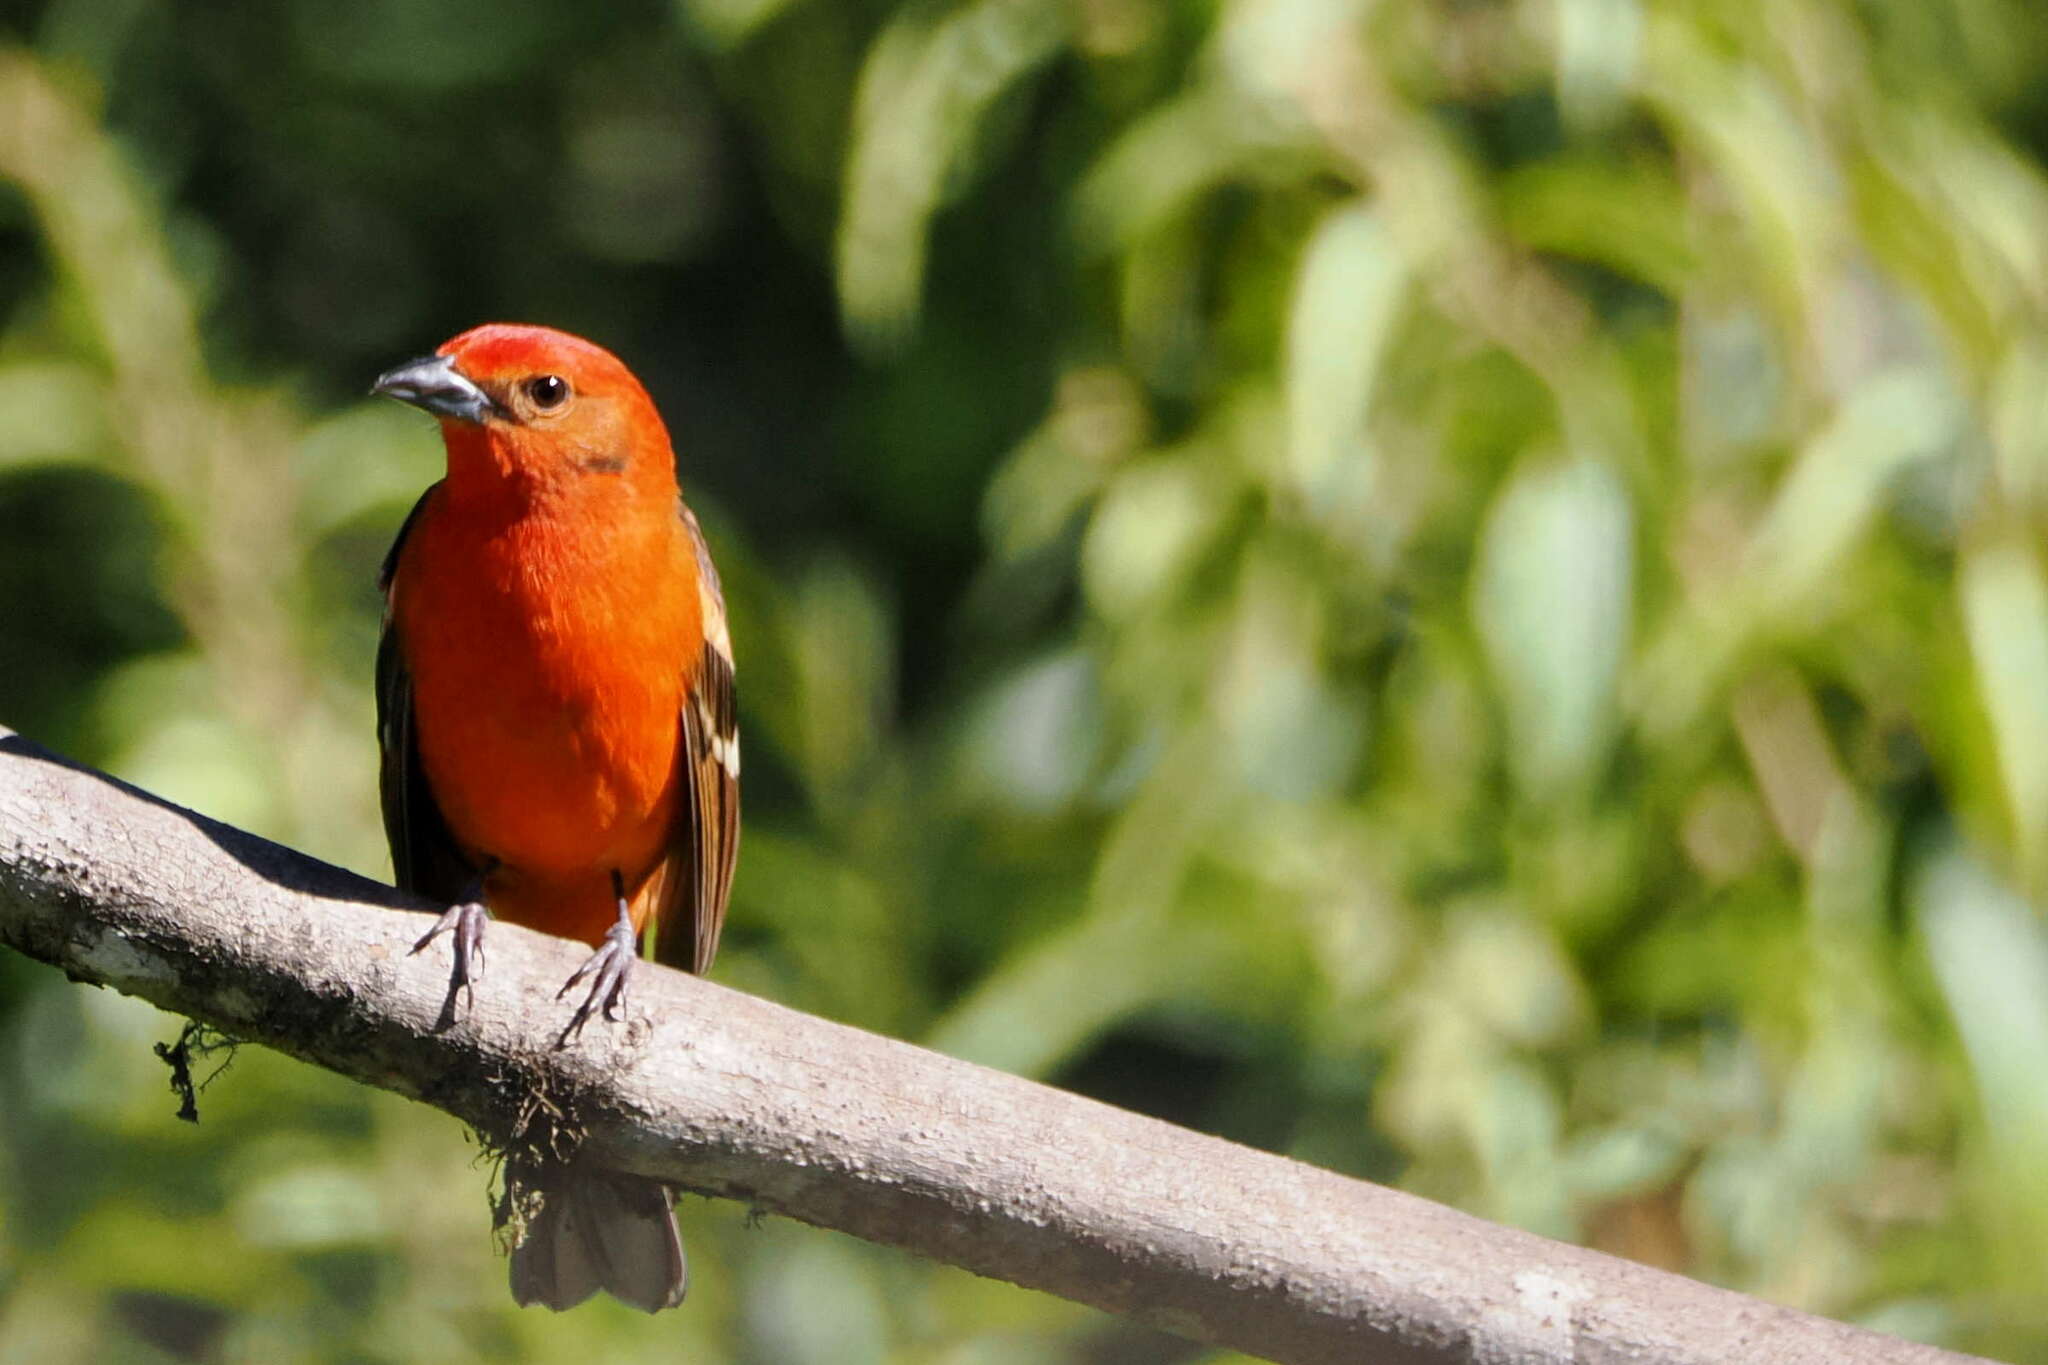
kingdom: Animalia
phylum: Chordata
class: Aves
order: Passeriformes
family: Cardinalidae
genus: Piranga
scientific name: Piranga bidentata
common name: Flame-colored tanager
